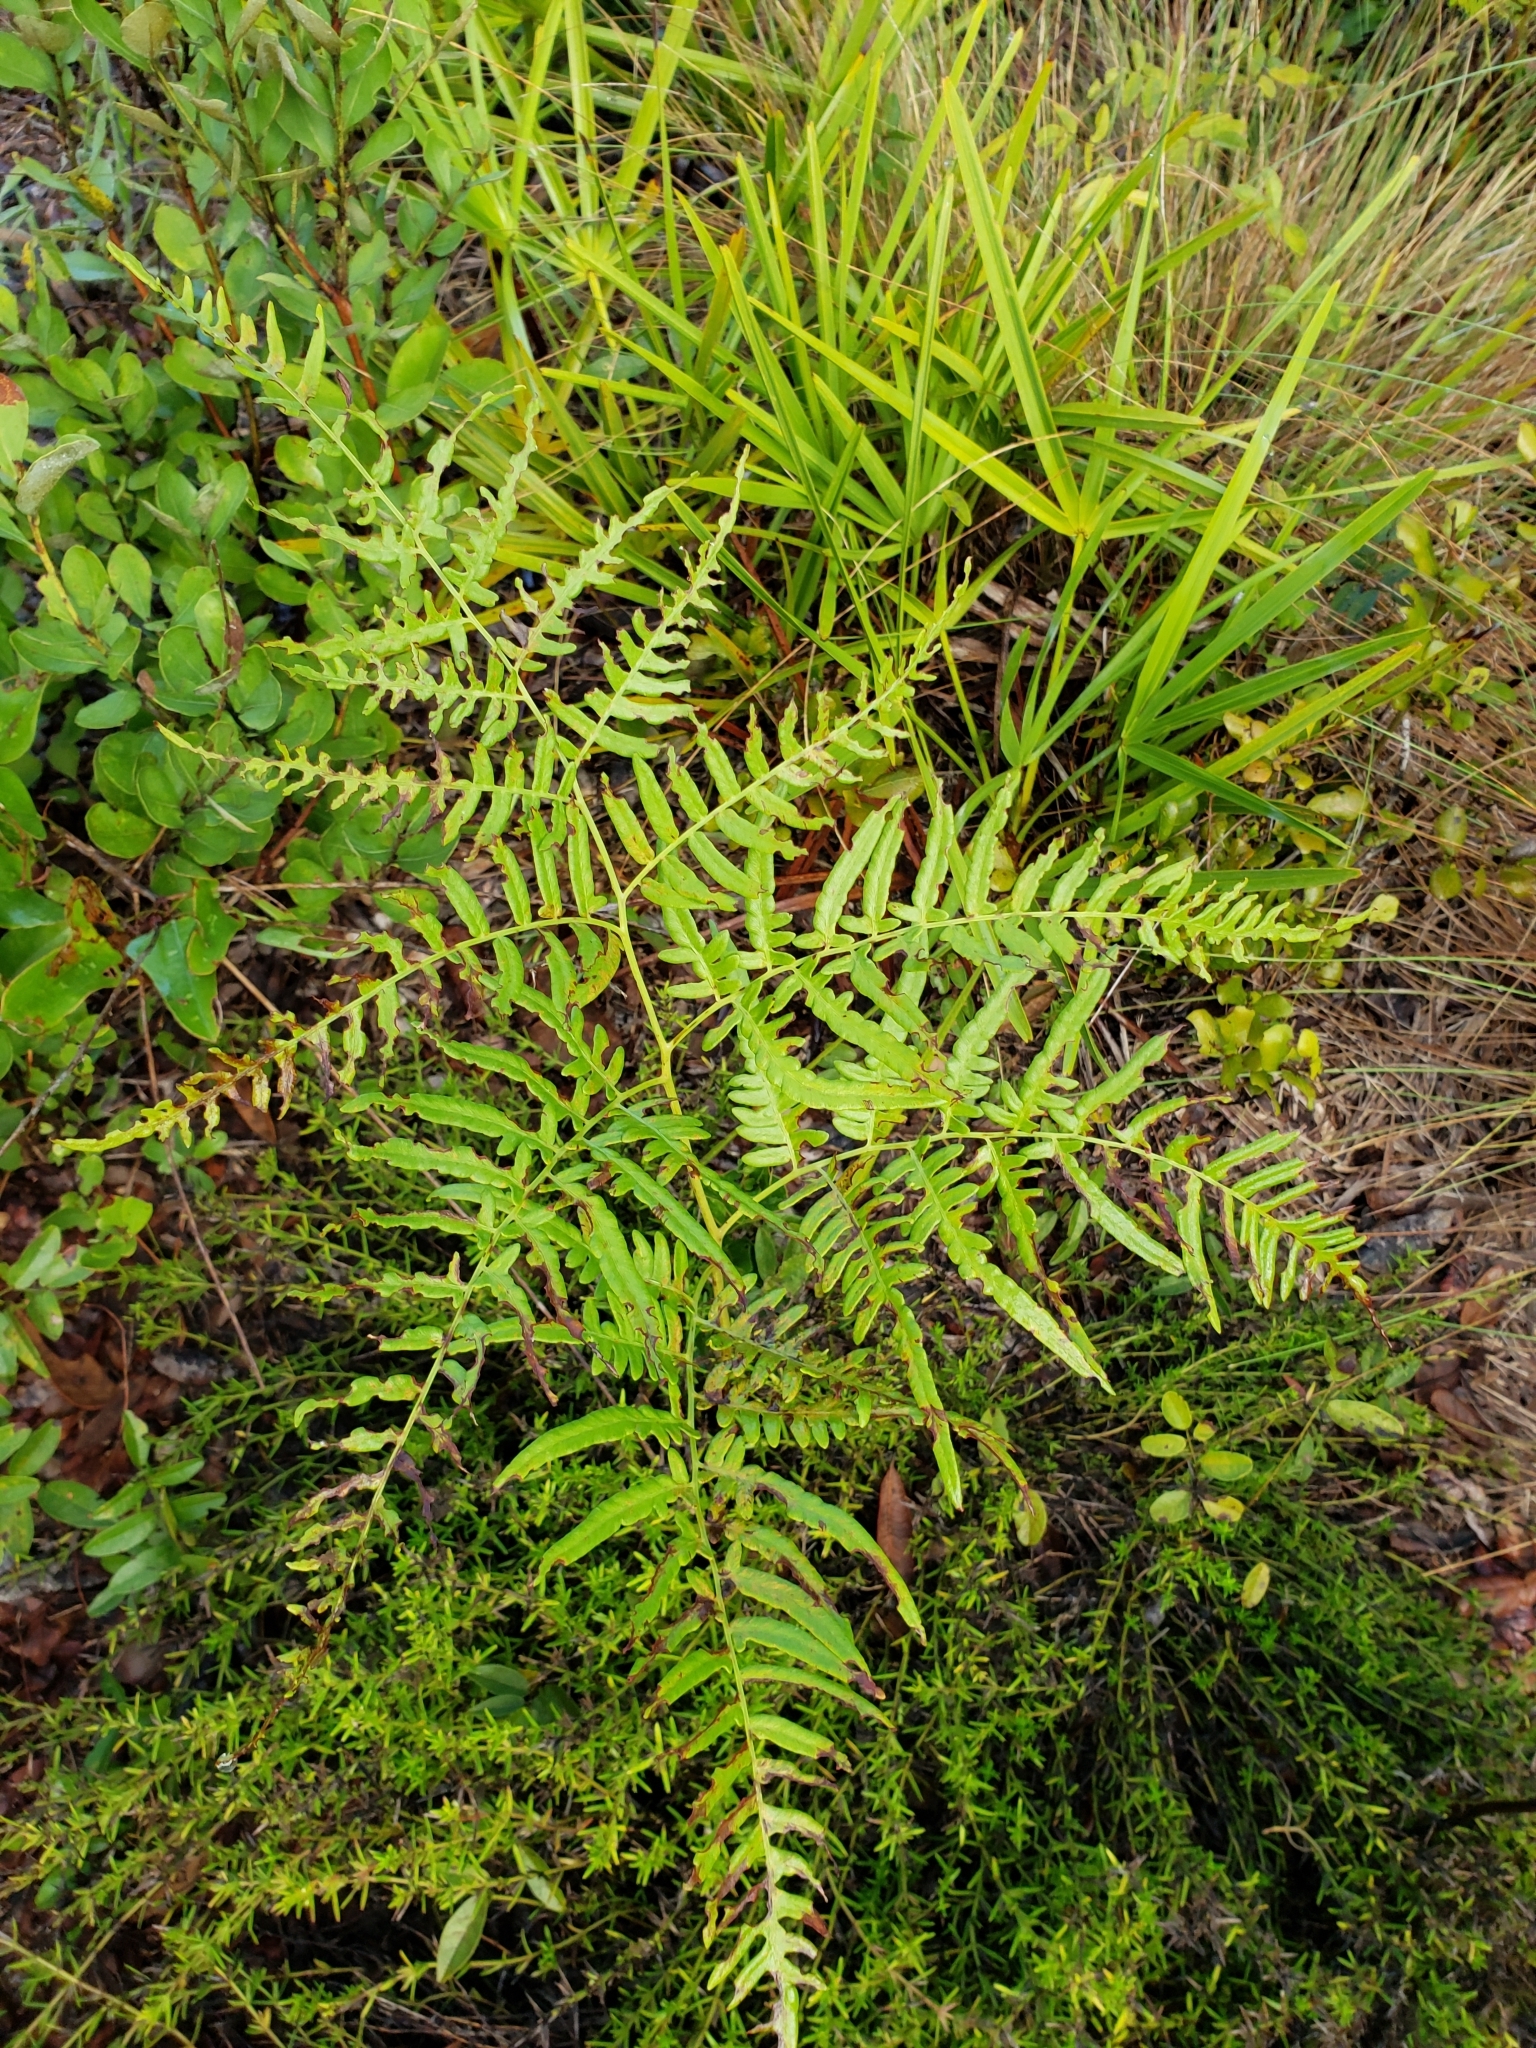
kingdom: Plantae
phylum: Tracheophyta
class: Polypodiopsida
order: Polypodiales
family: Dennstaedtiaceae
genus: Pteridium
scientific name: Pteridium
